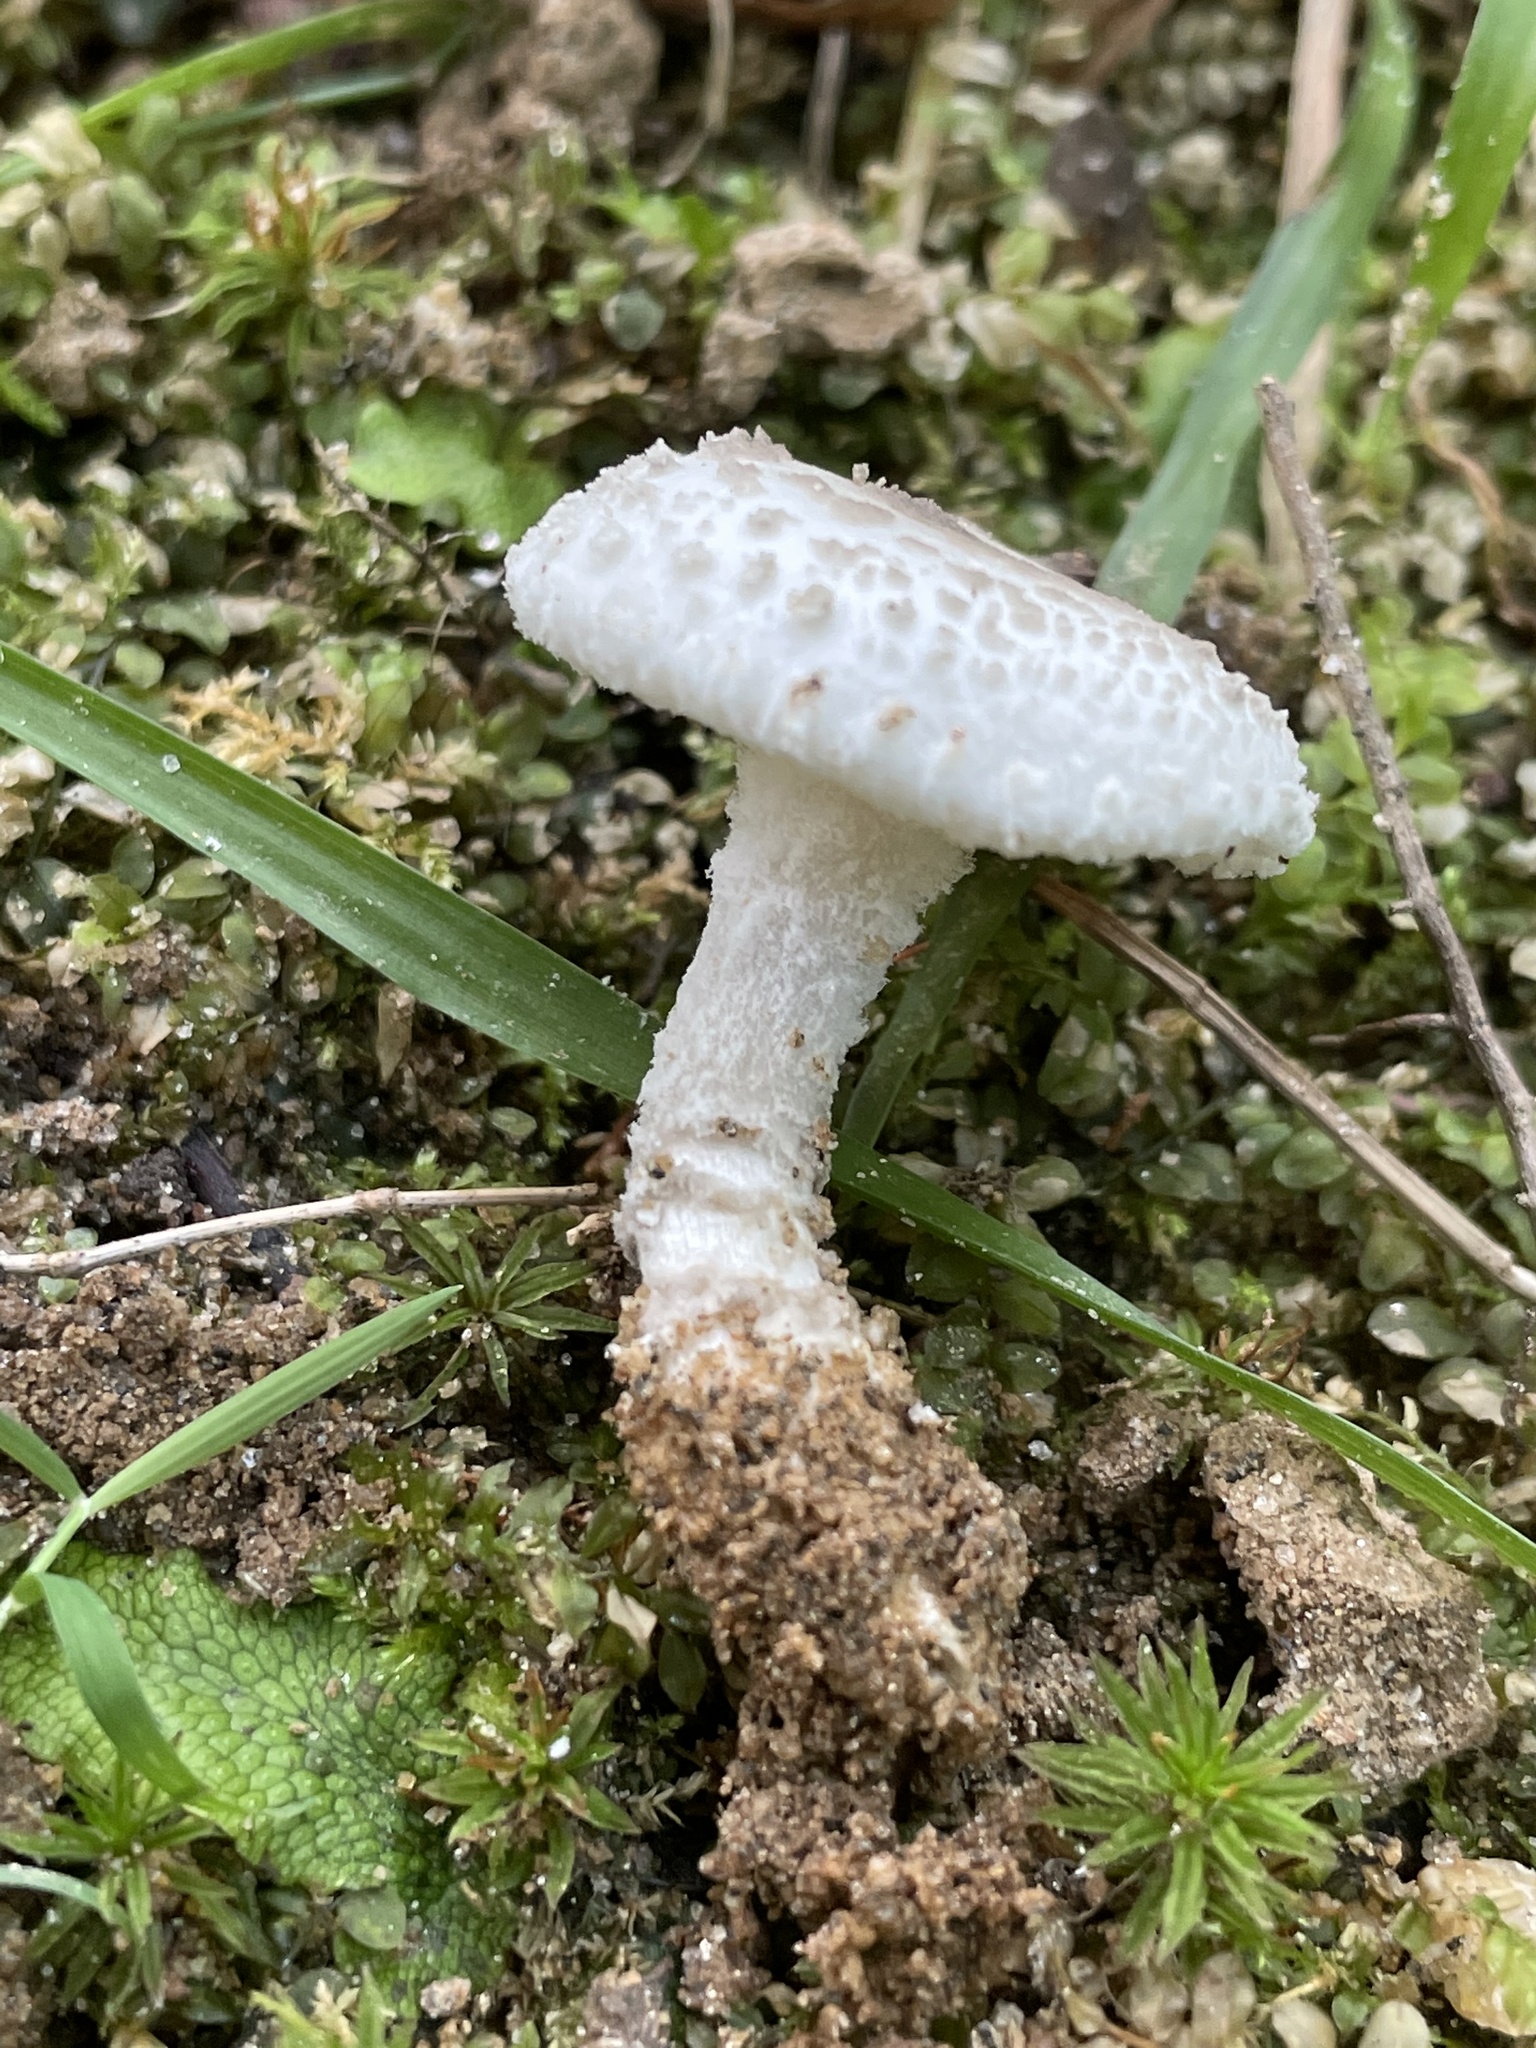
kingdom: Fungi
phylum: Basidiomycota
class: Agaricomycetes
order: Agaricales
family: Amanitaceae
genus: Amanita
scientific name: Amanita chlorinosma
